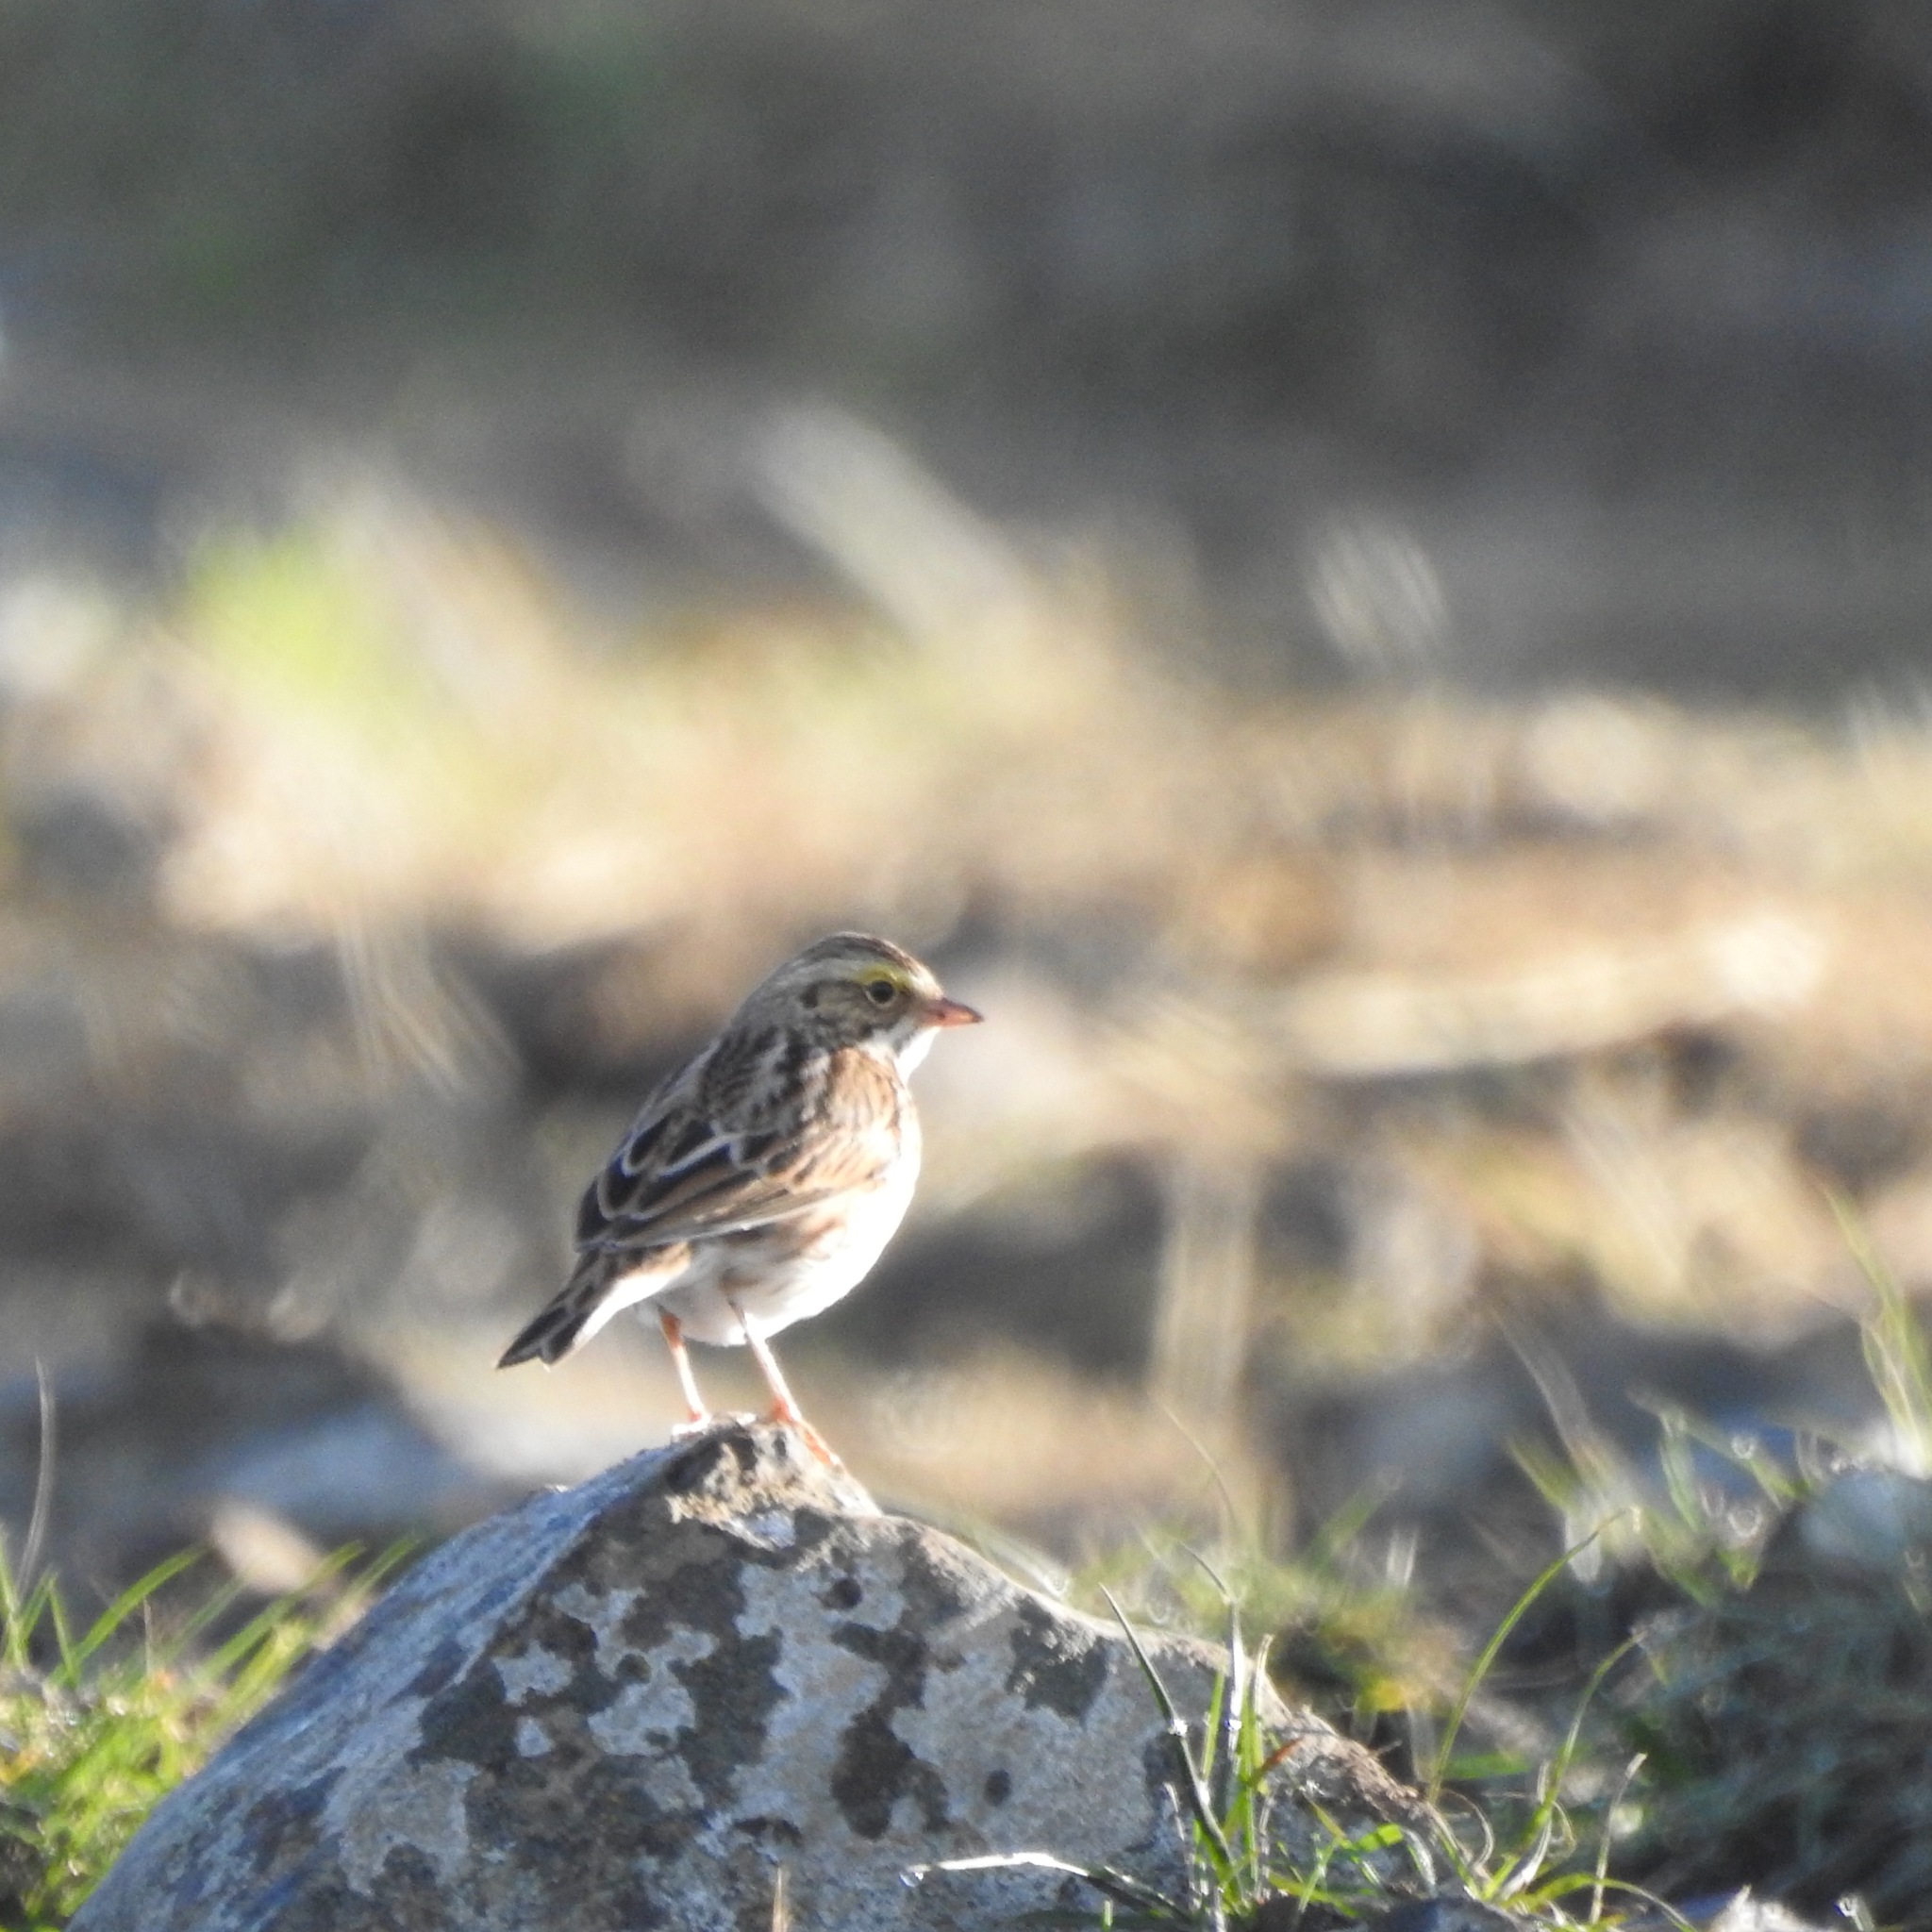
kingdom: Animalia
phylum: Chordata
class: Aves
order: Passeriformes
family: Passerellidae
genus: Passerculus
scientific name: Passerculus sandwichensis
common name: Savannah sparrow
